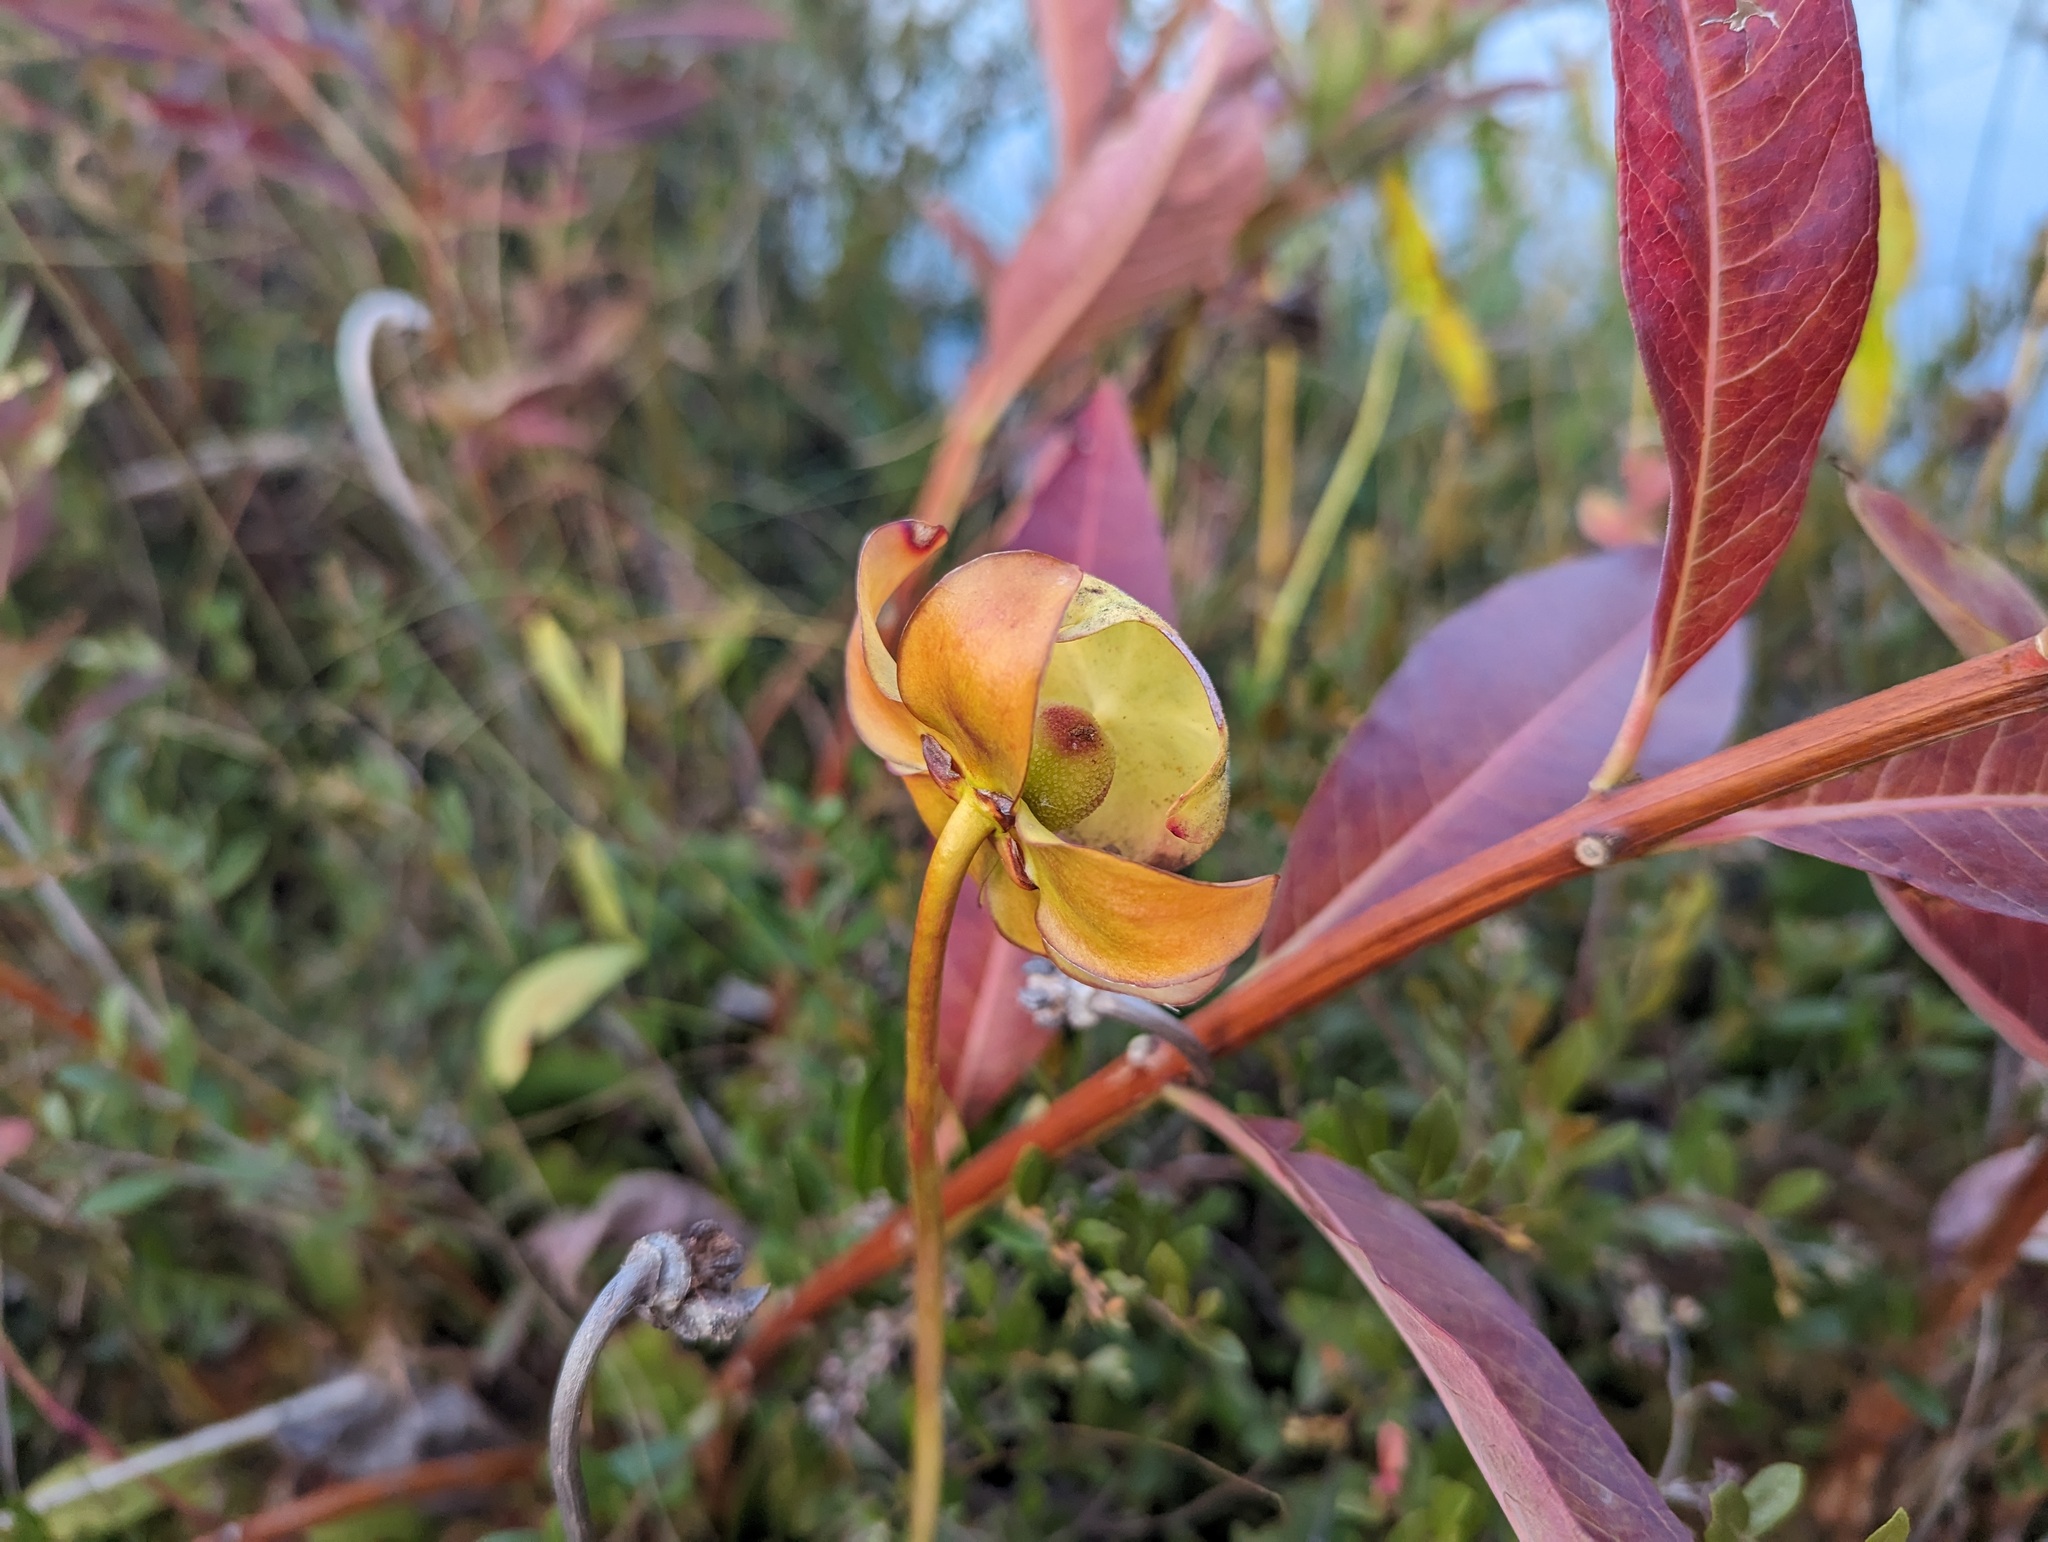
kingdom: Plantae
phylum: Tracheophyta
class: Magnoliopsida
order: Ericales
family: Sarraceniaceae
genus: Sarracenia
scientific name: Sarracenia purpurea
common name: Pitcherplant
